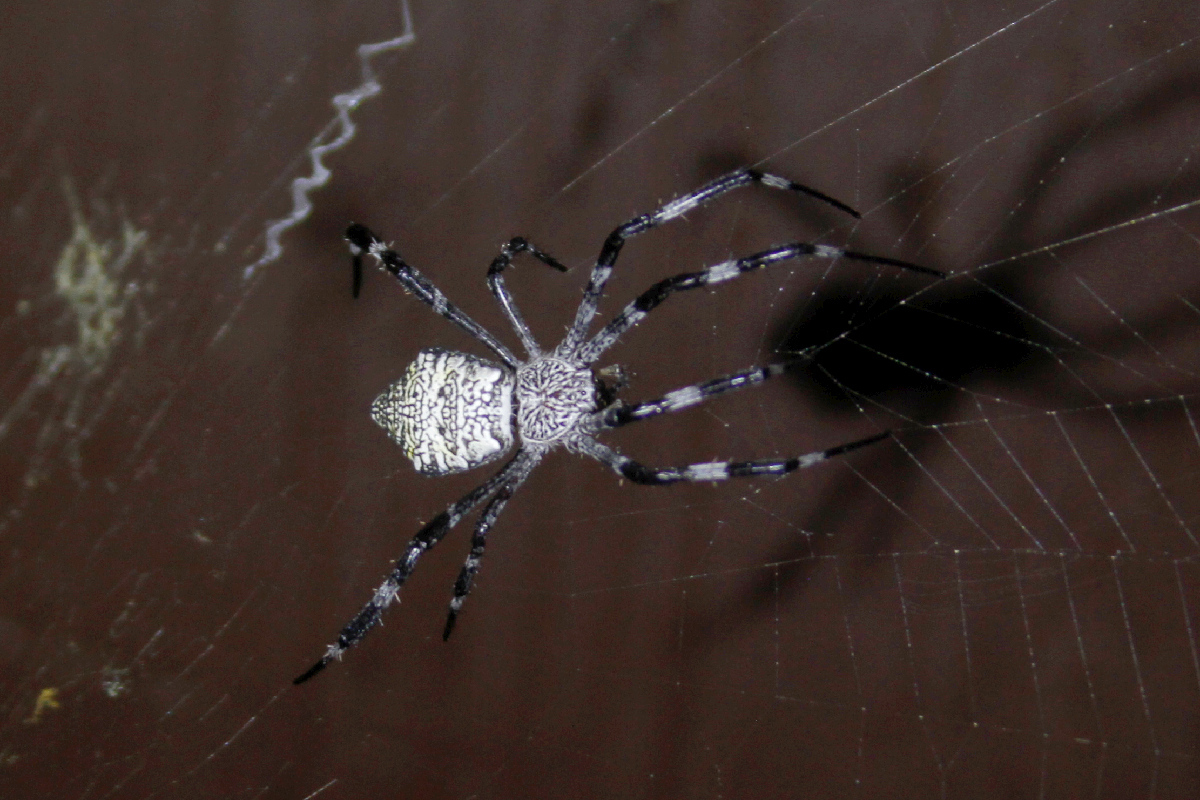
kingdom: Animalia
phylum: Arthropoda
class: Arachnida
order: Araneae
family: Araneidae
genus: Argiope
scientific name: Argiope appensa
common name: Garden spider
